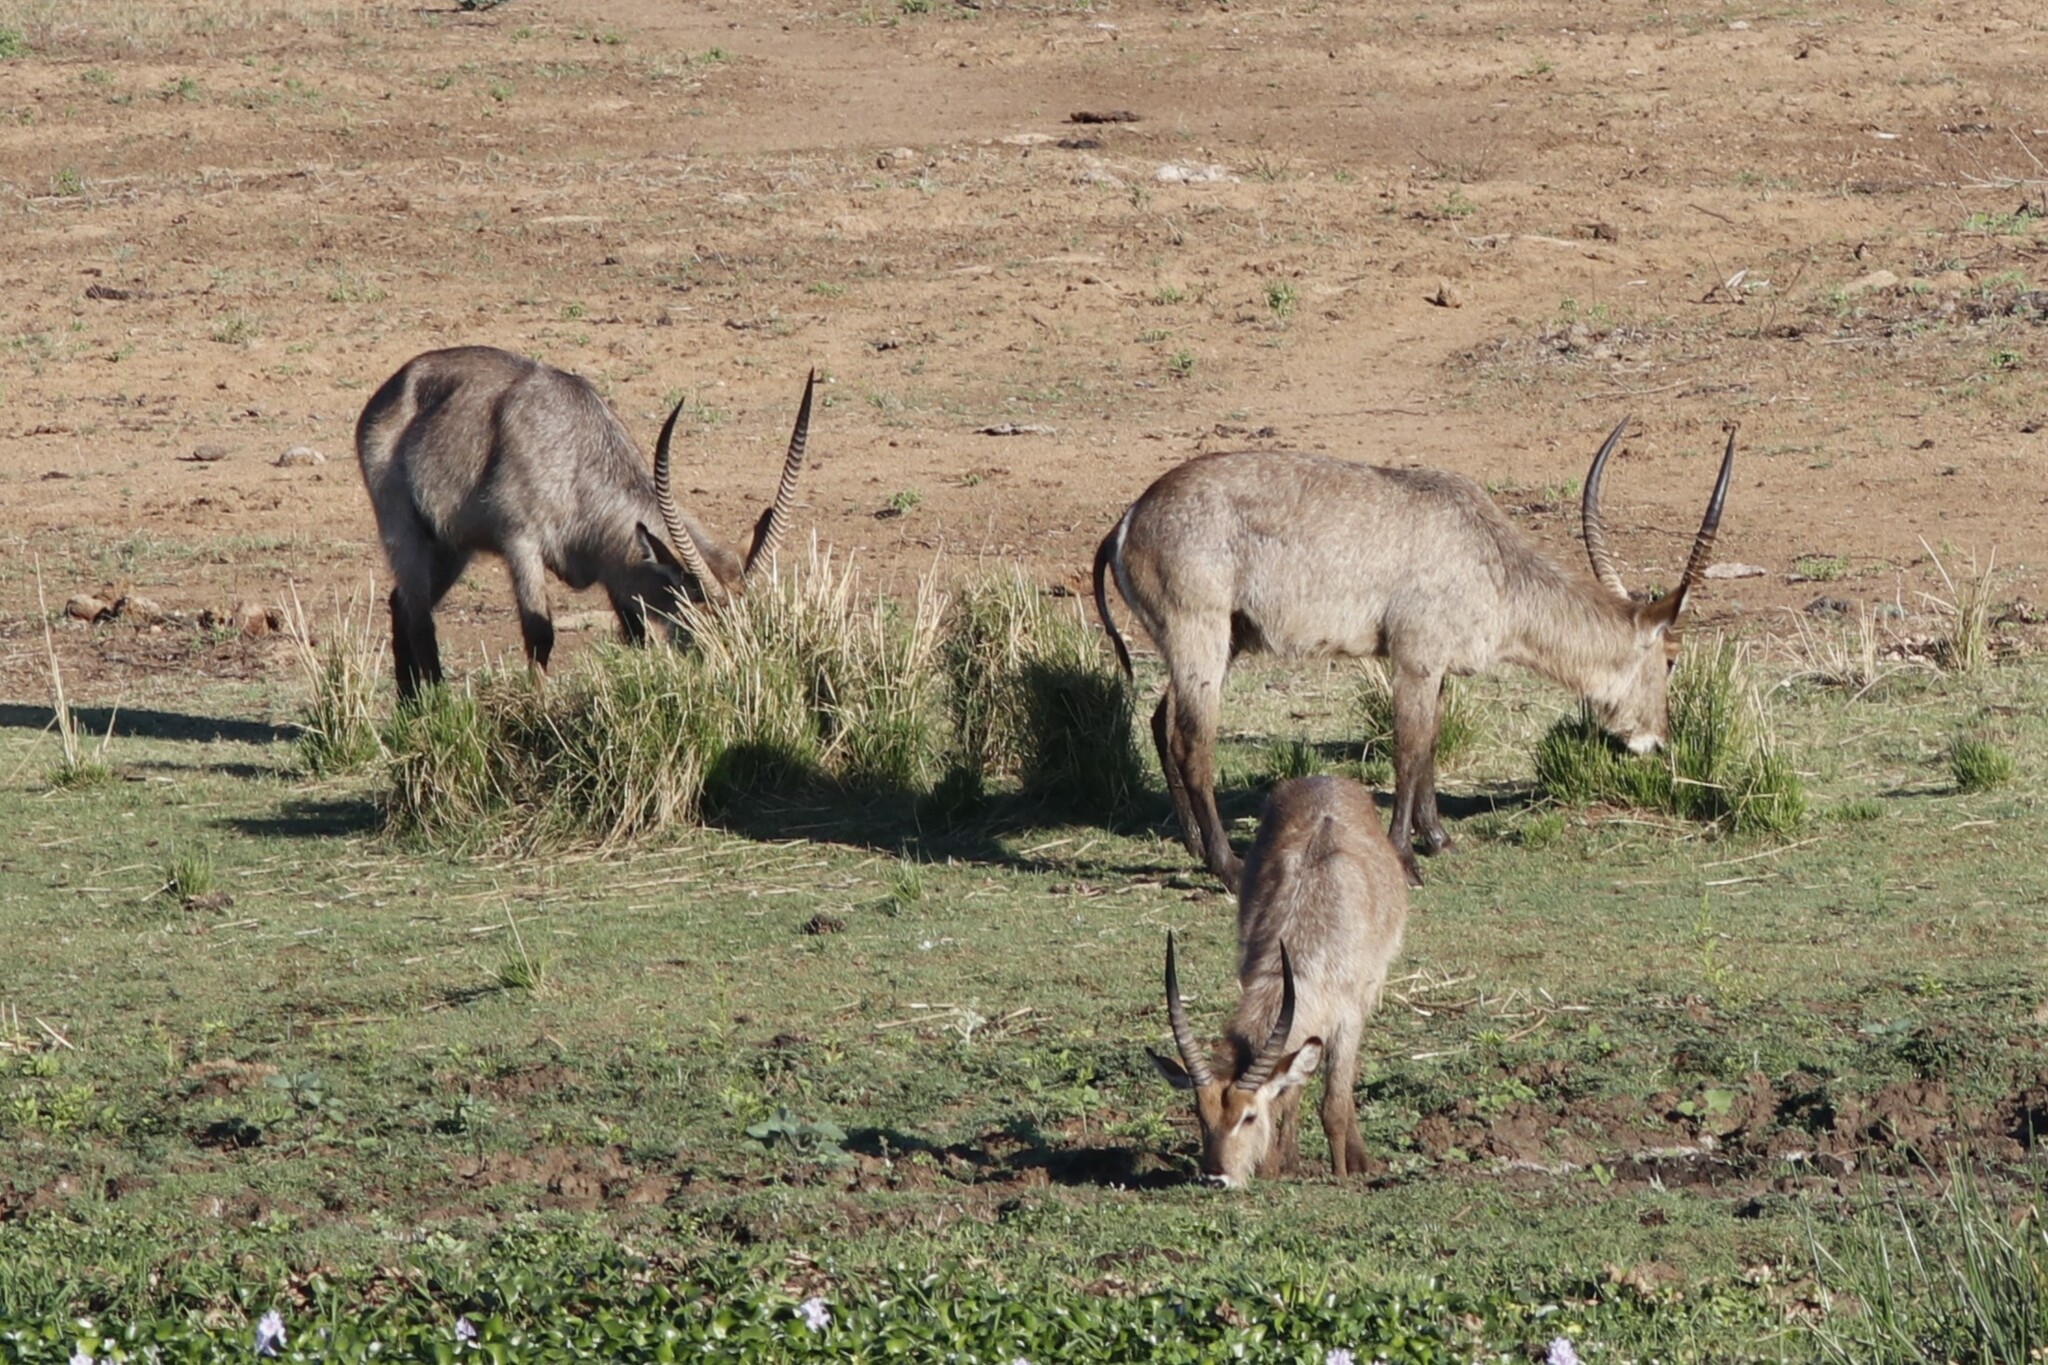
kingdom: Animalia
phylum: Chordata
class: Mammalia
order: Artiodactyla
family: Bovidae
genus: Kobus
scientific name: Kobus ellipsiprymnus
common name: Waterbuck
